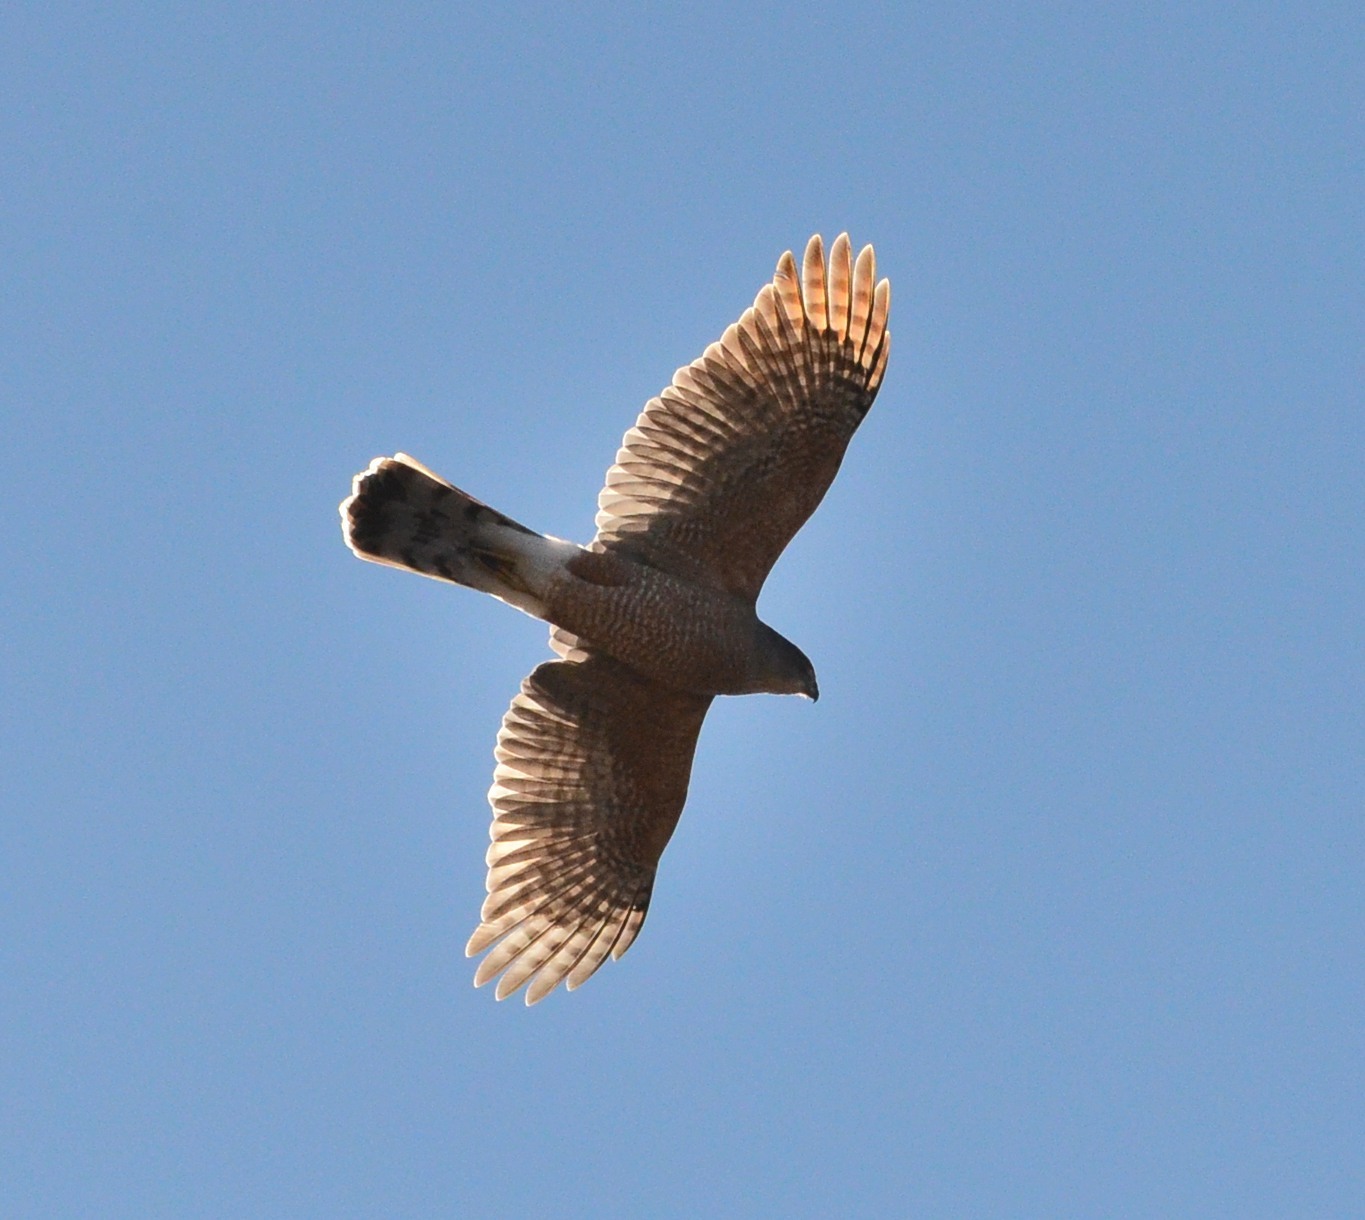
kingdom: Animalia
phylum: Chordata
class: Aves
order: Accipitriformes
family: Accipitridae
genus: Accipiter
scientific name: Accipiter cooperii
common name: Cooper's hawk
